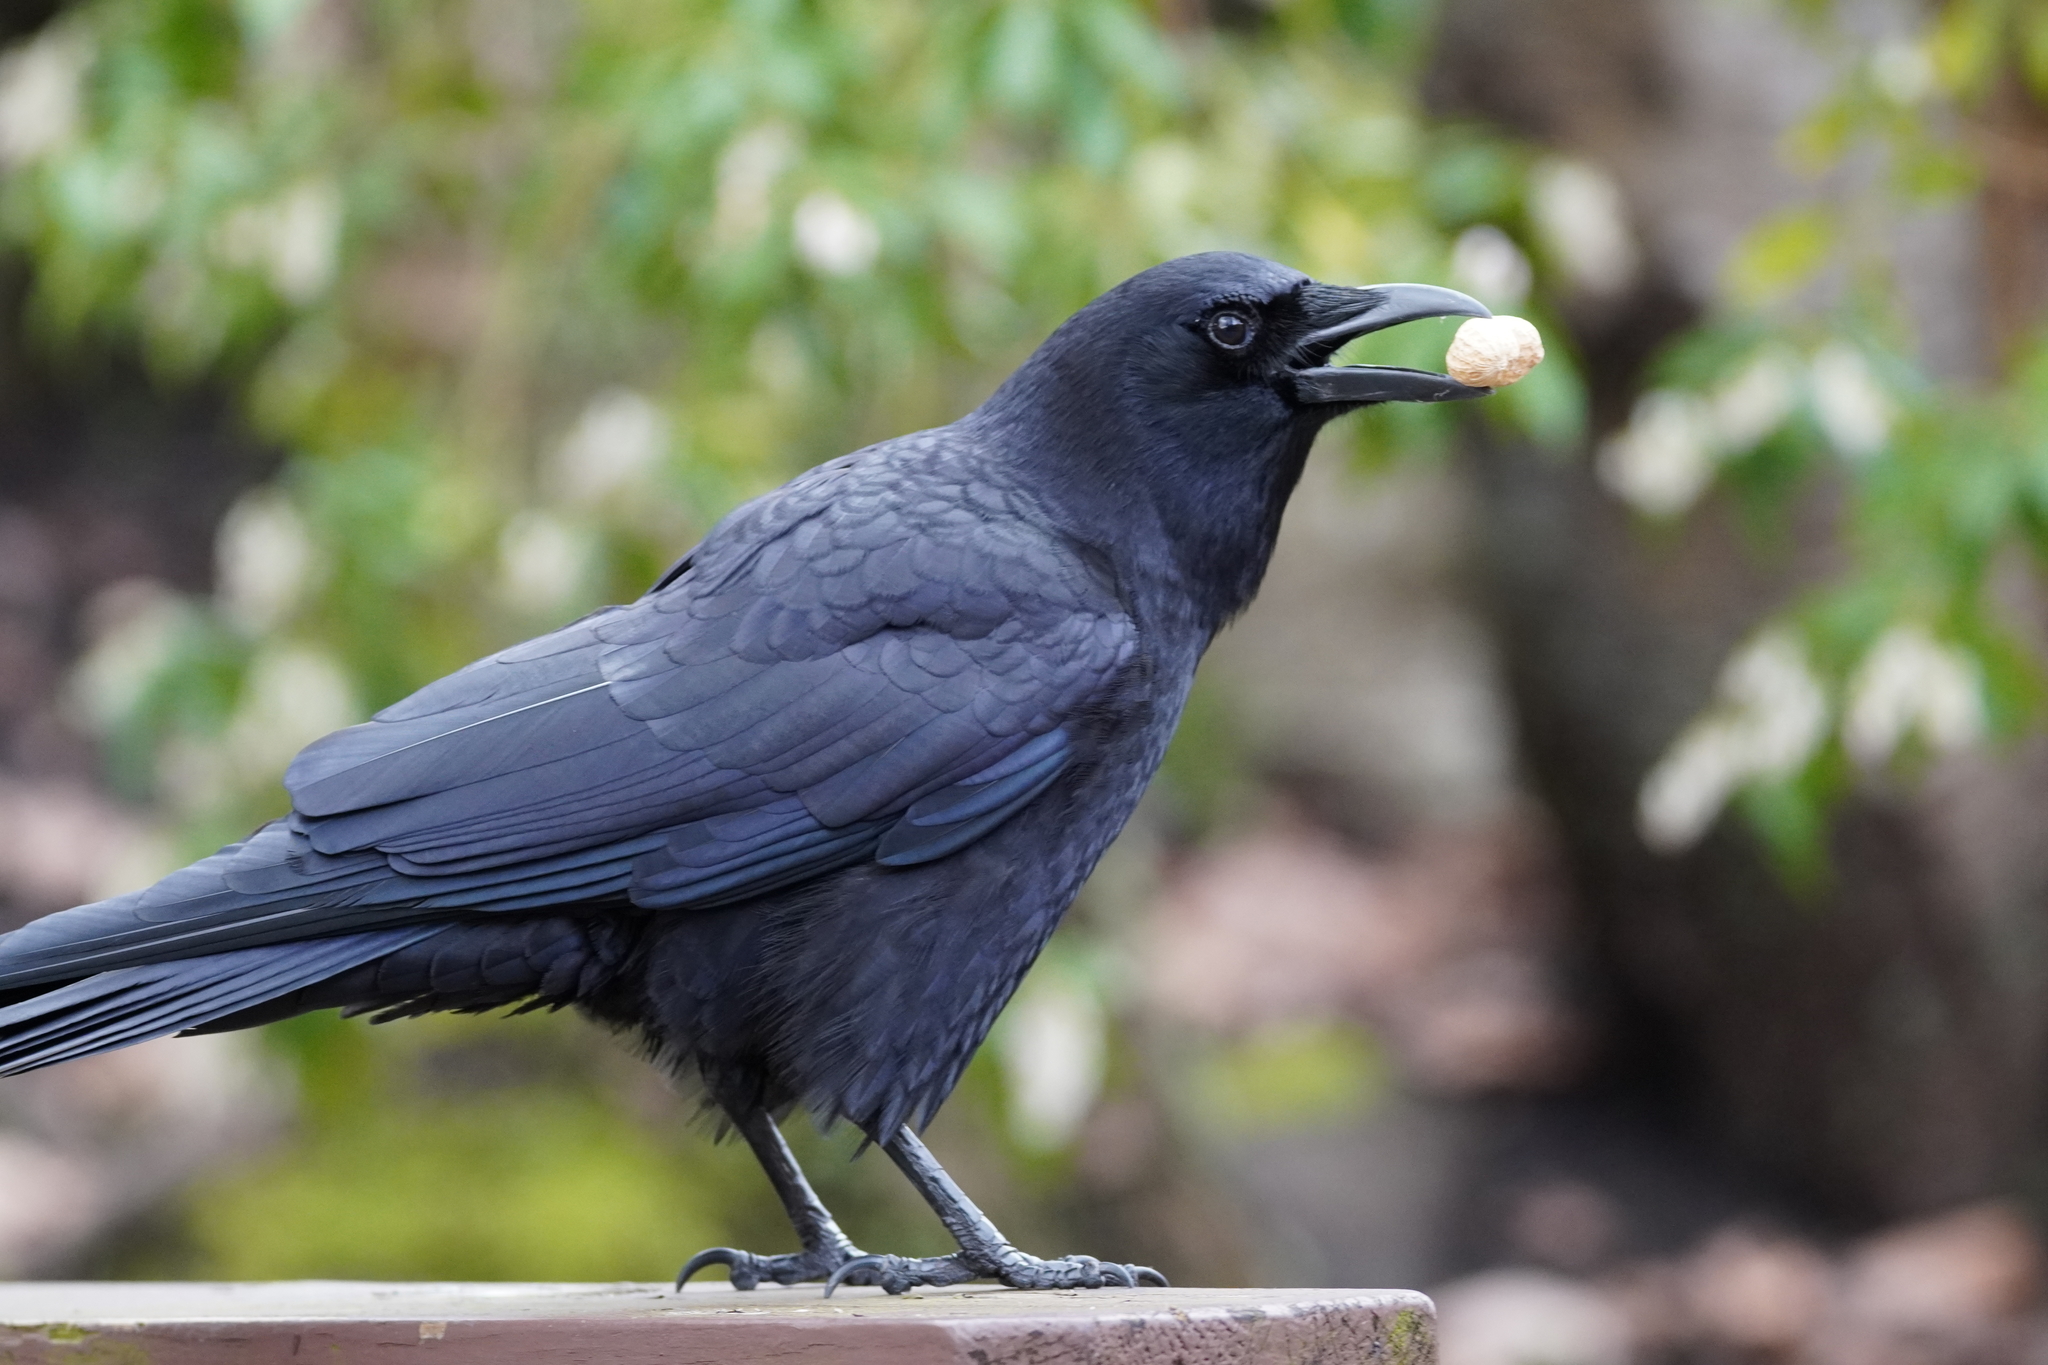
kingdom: Animalia
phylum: Chordata
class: Aves
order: Passeriformes
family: Corvidae
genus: Corvus
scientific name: Corvus brachyrhynchos
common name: American crow
